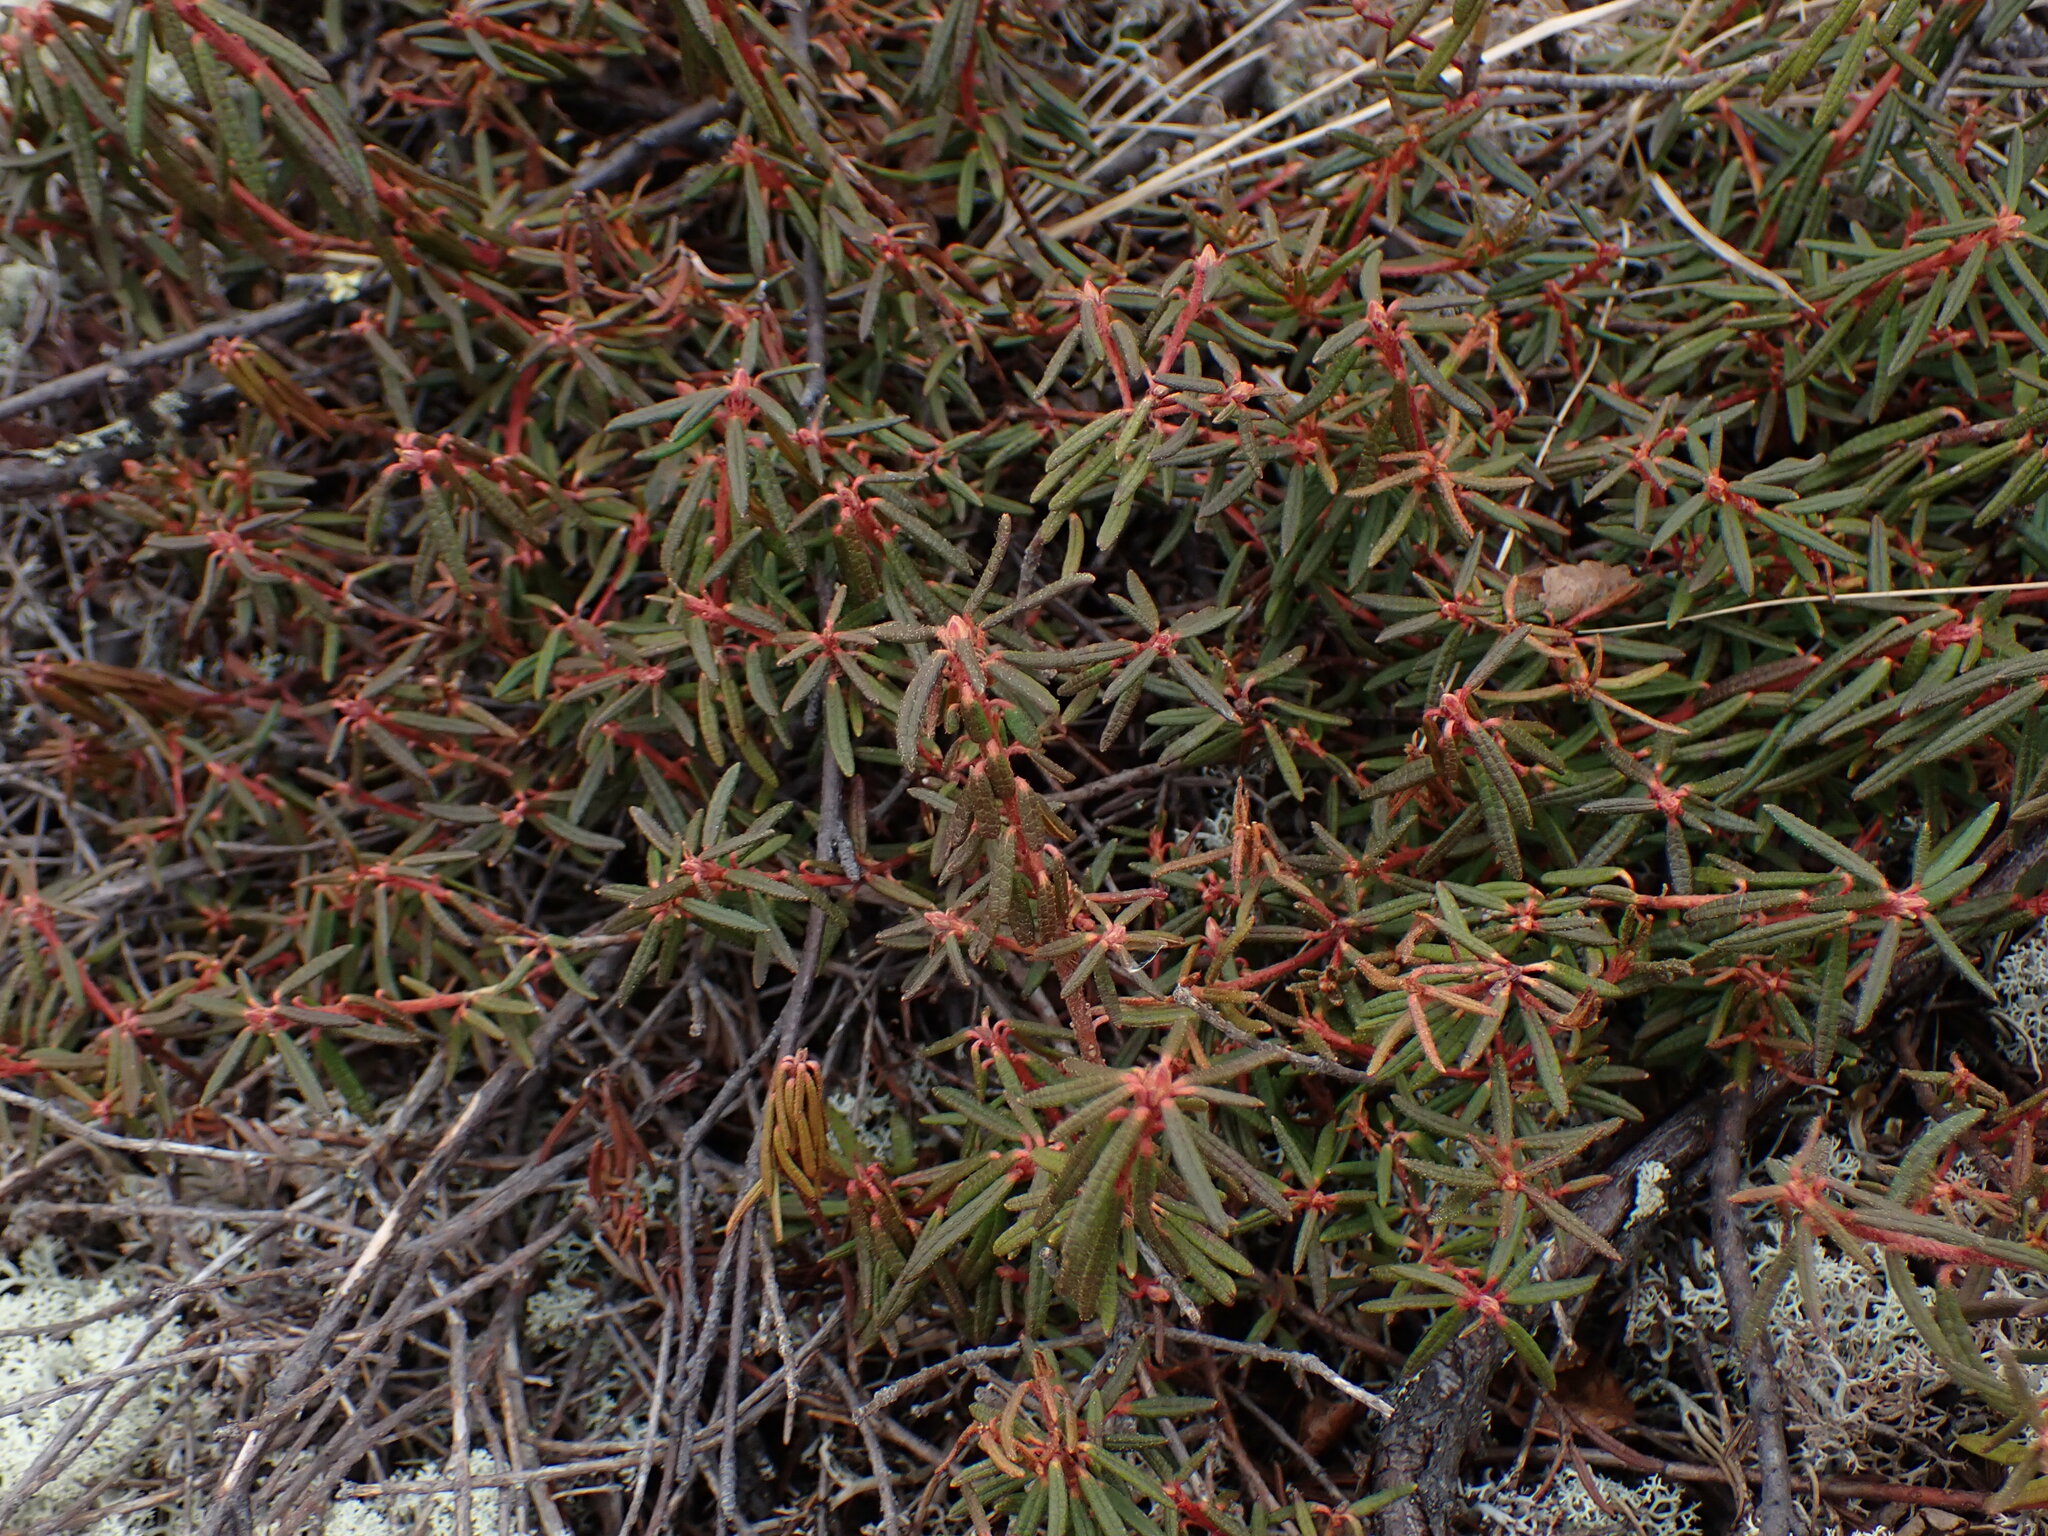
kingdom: Plantae
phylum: Tracheophyta
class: Magnoliopsida
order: Ericales
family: Ericaceae
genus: Rhododendron
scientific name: Rhododendron tomentosum
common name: Marsh labrador tea
